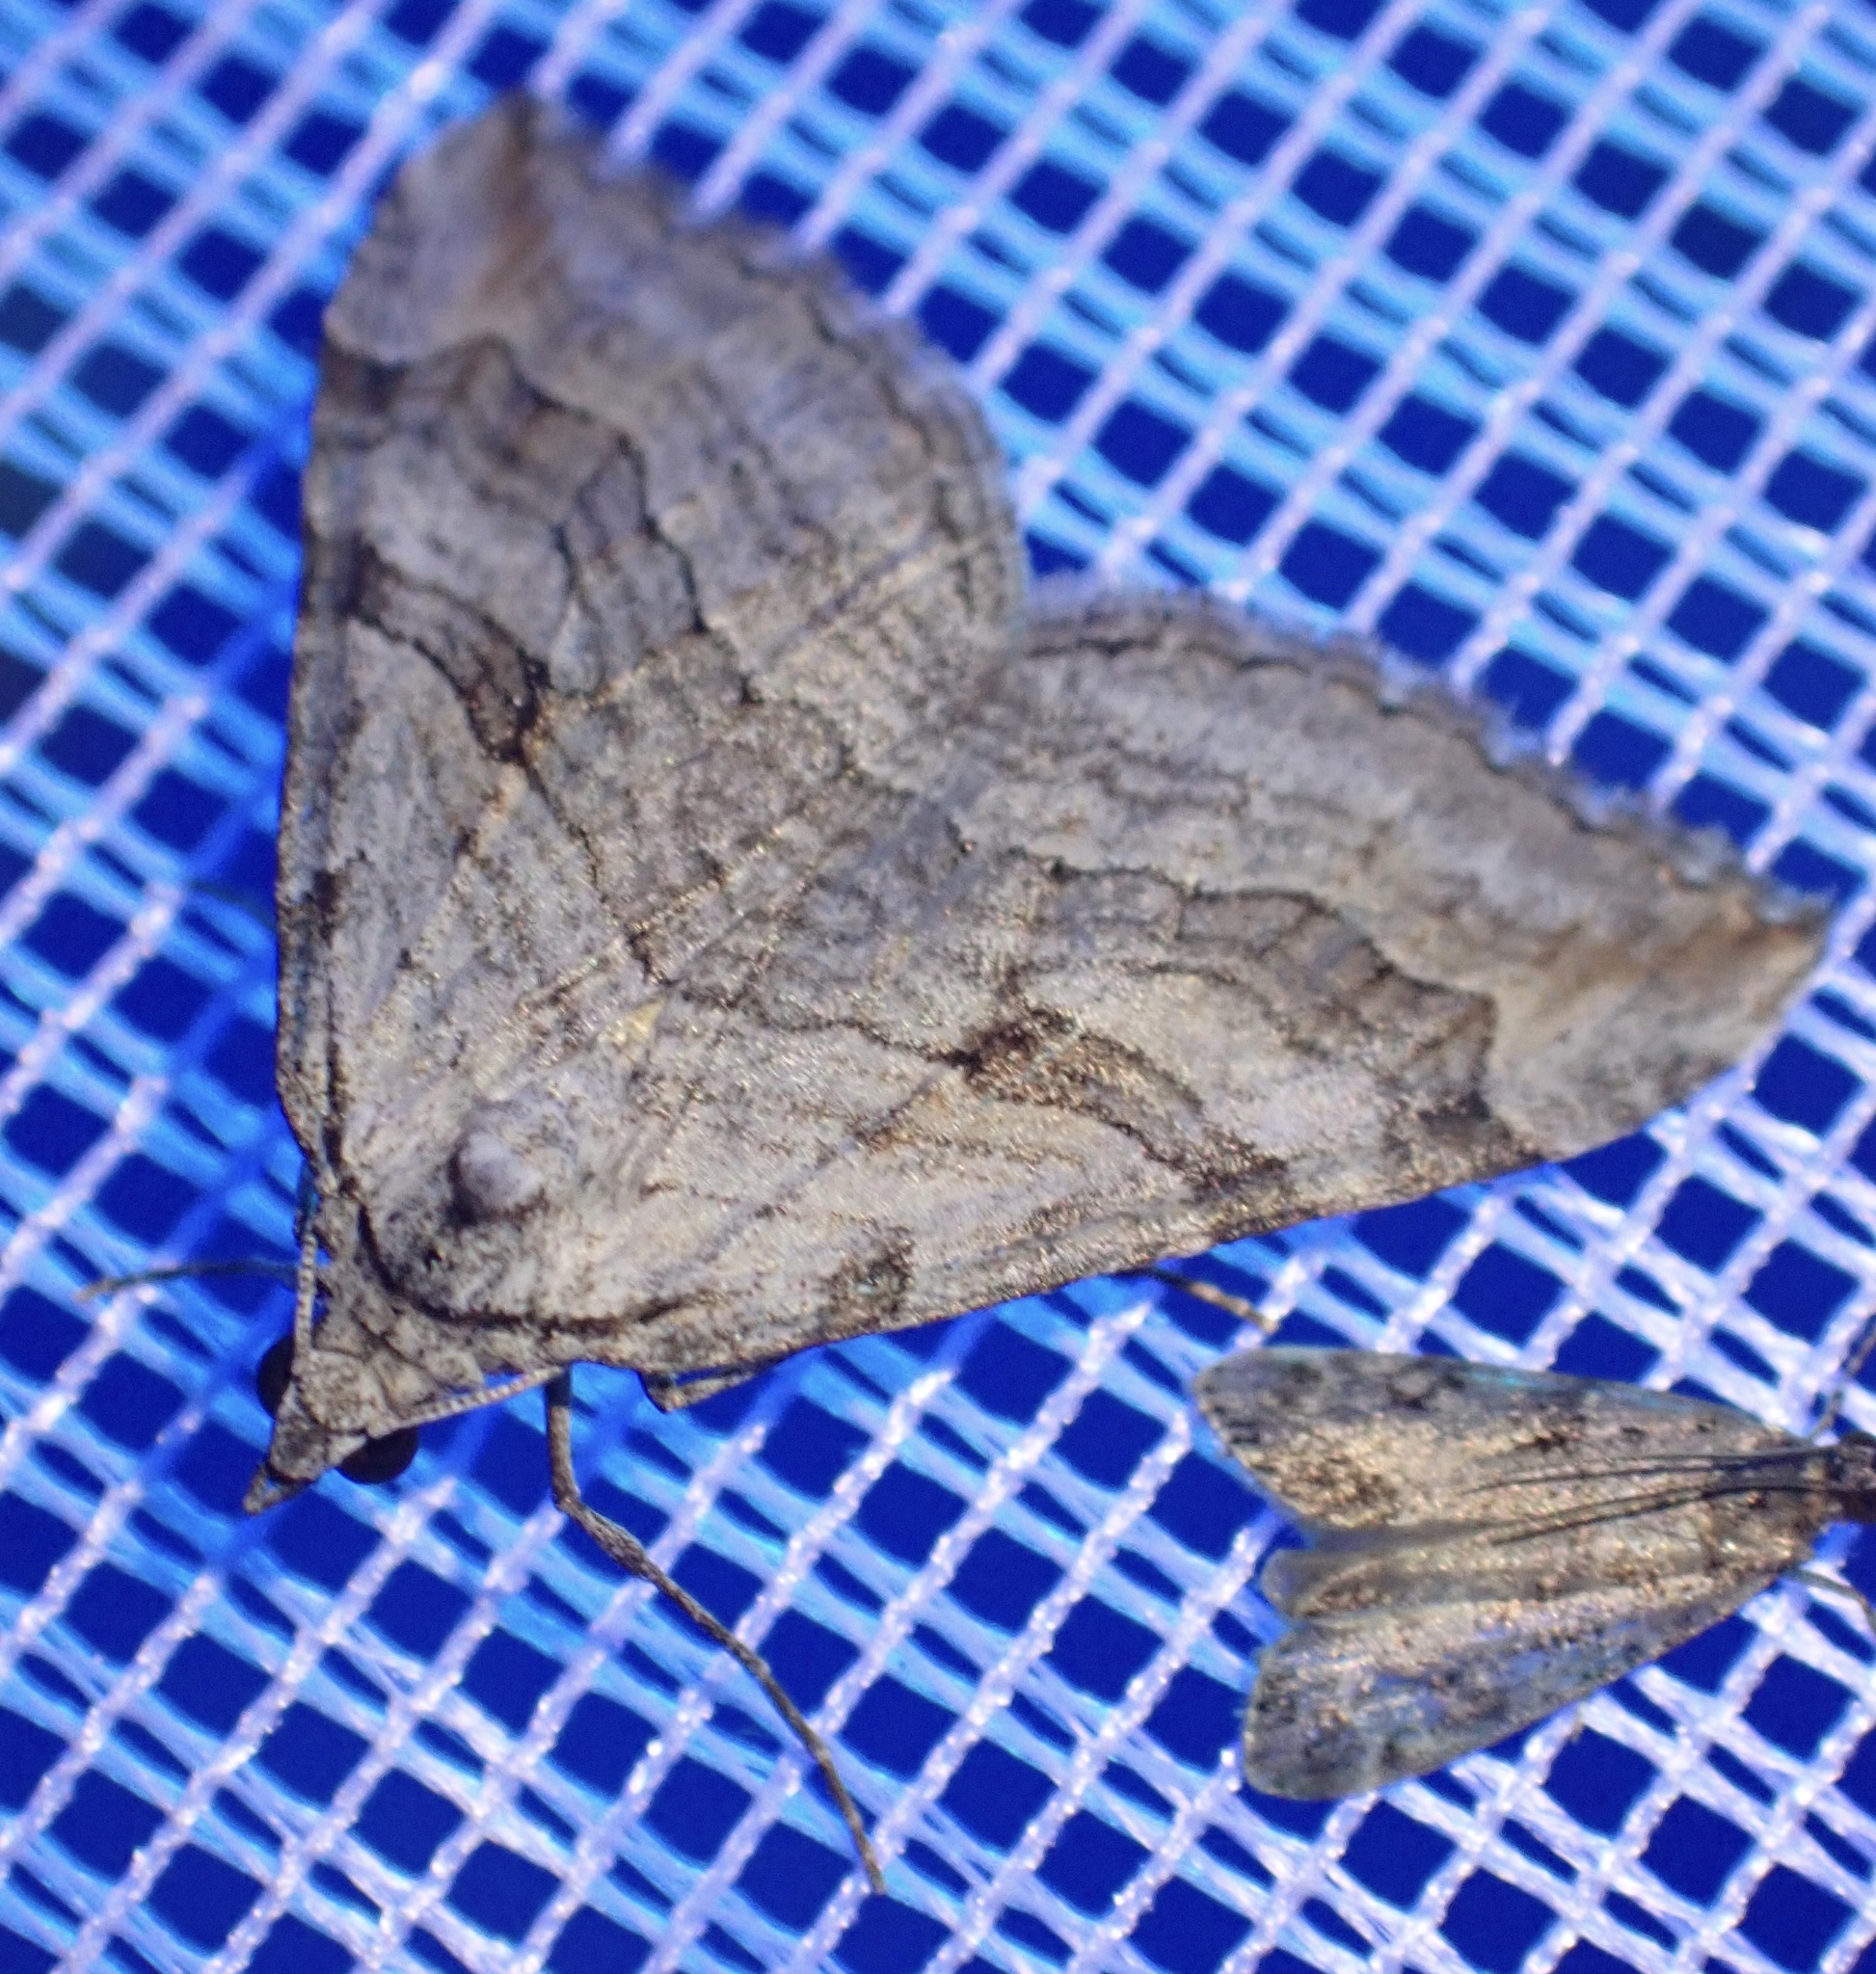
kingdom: Animalia
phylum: Arthropoda
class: Insecta
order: Lepidoptera
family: Geometridae
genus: Aplocera
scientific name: Aplocera plagiata
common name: Treble-bar
